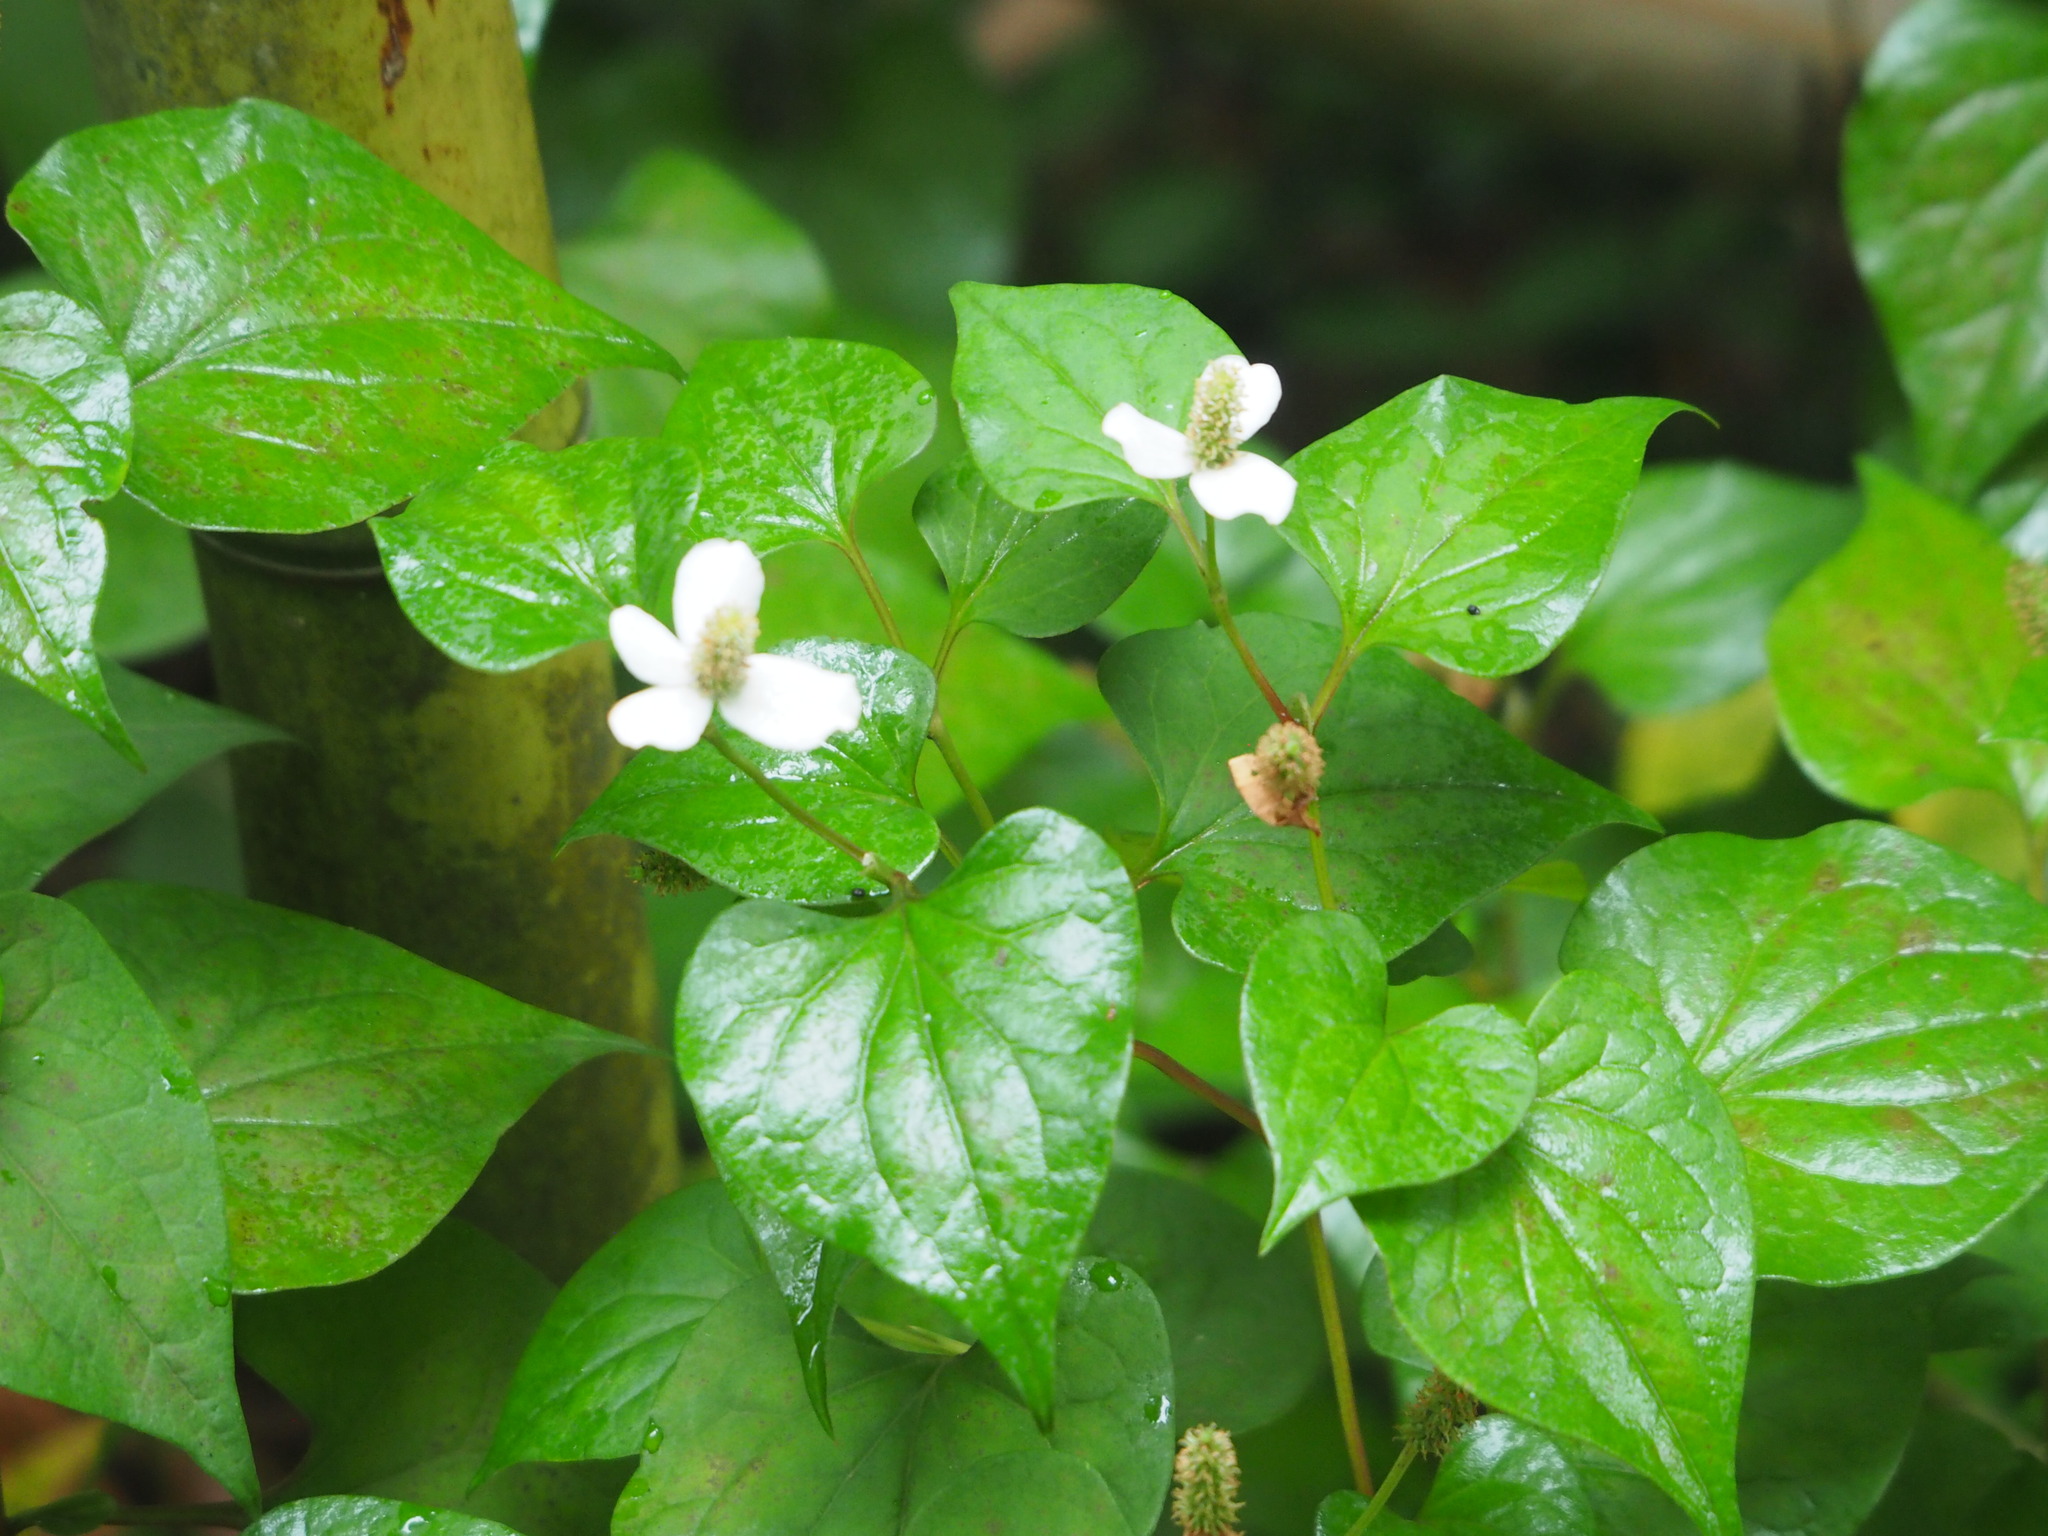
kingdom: Plantae
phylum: Tracheophyta
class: Magnoliopsida
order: Piperales
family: Saururaceae
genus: Houttuynia
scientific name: Houttuynia cordata
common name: Chameleon
